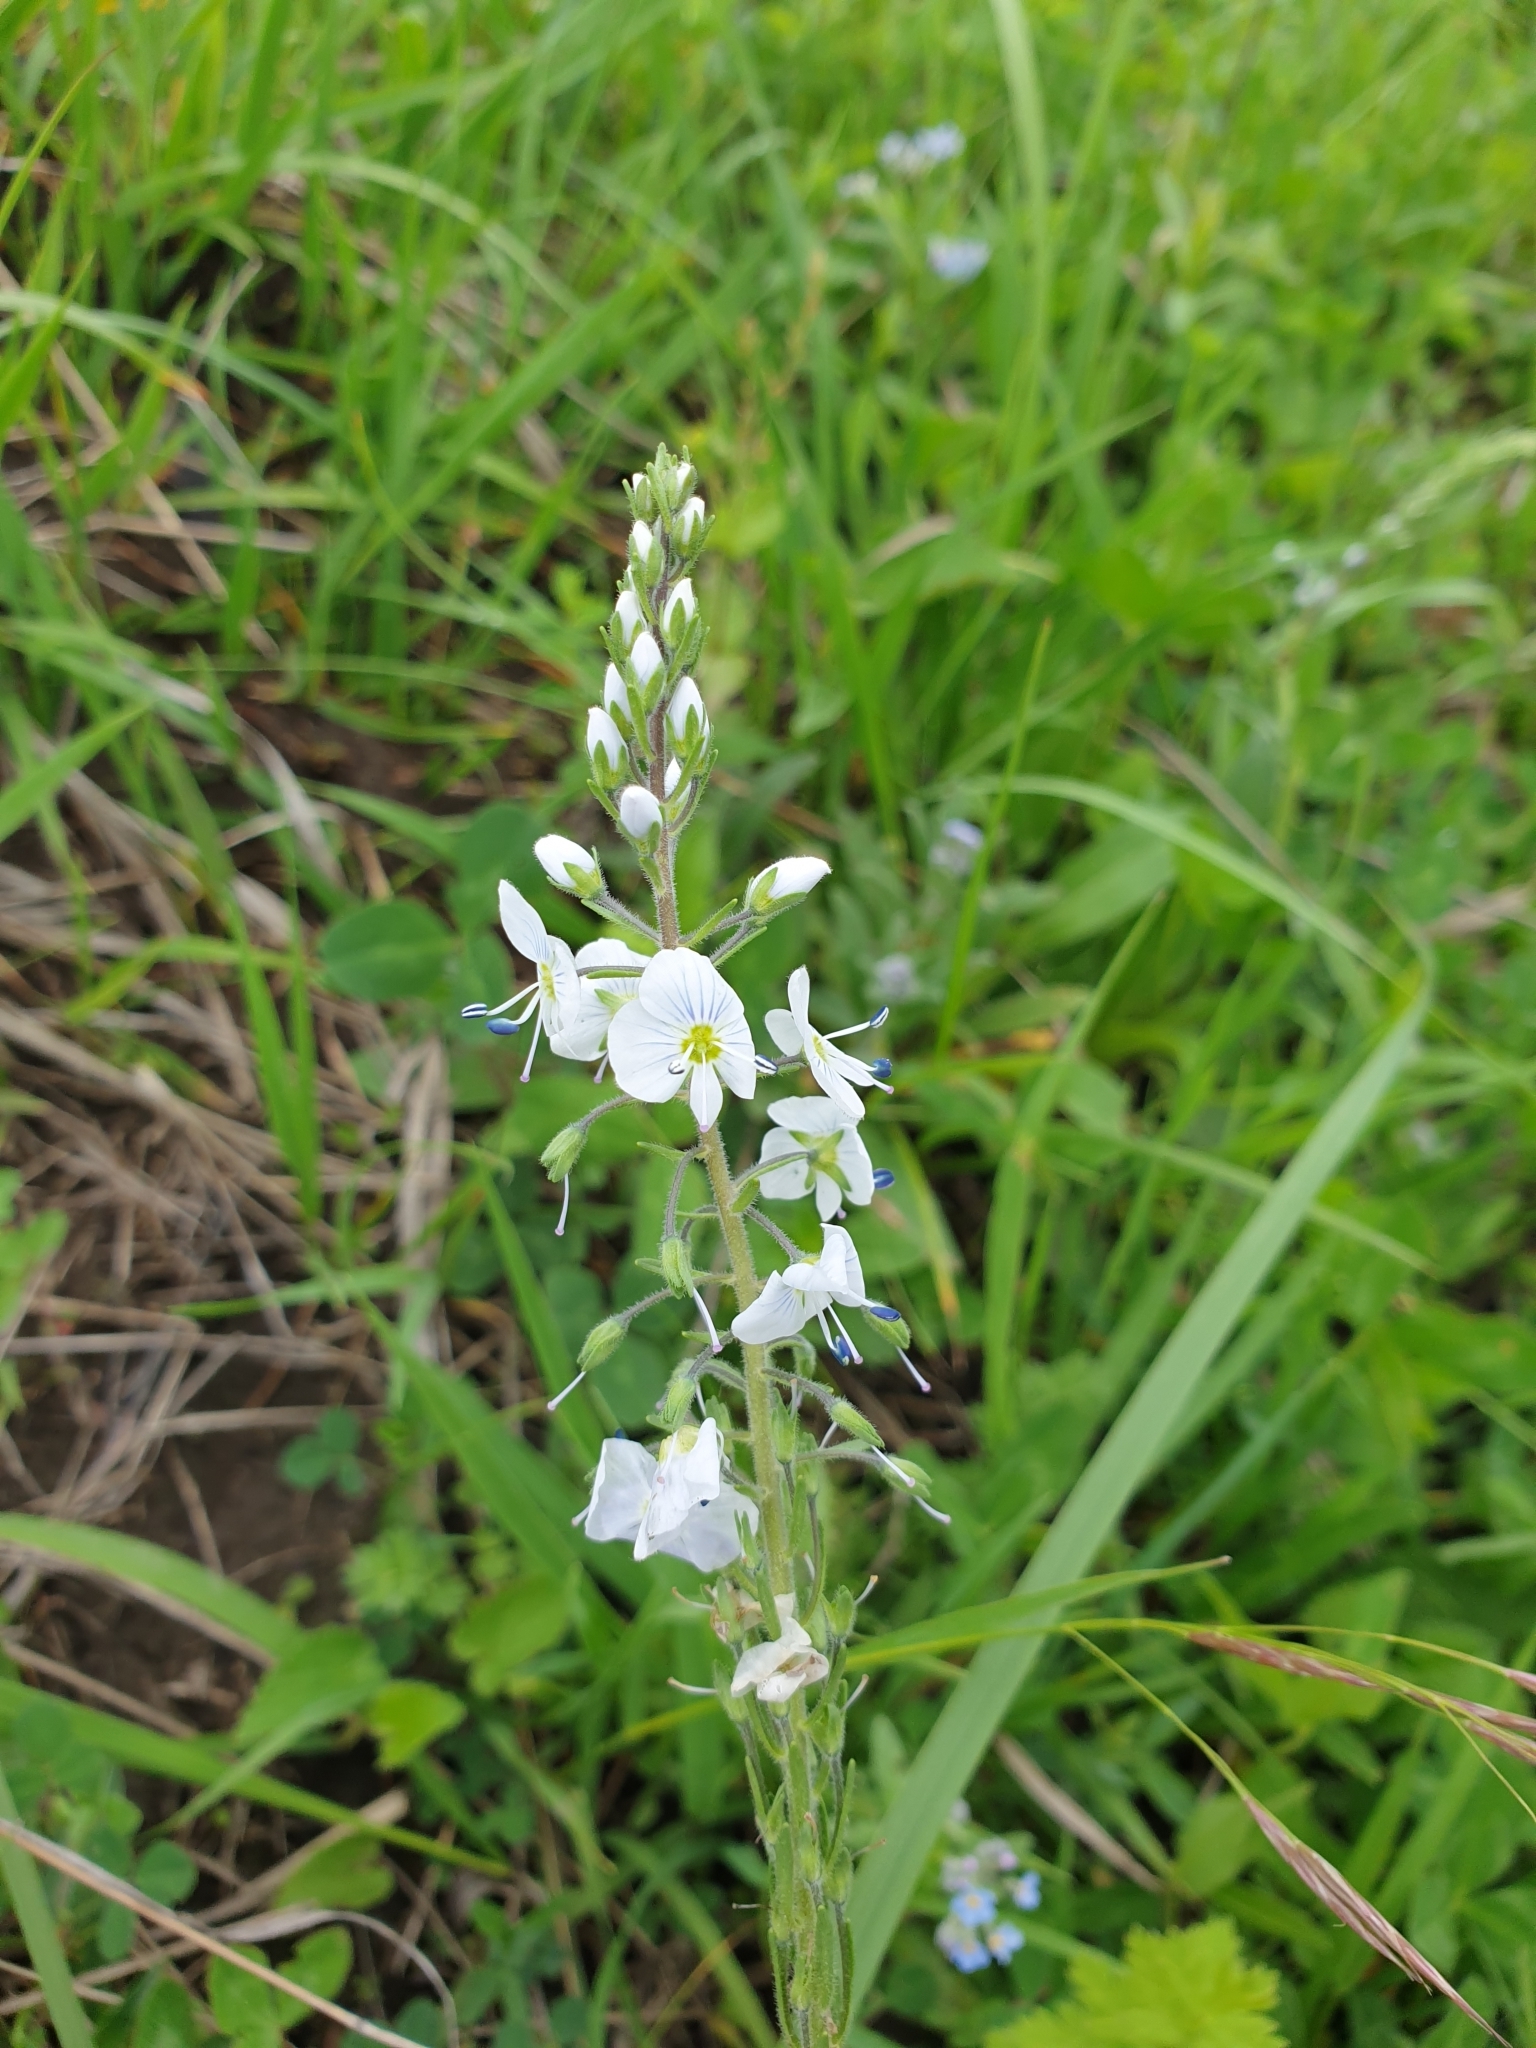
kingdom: Plantae
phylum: Tracheophyta
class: Magnoliopsida
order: Lamiales
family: Plantaginaceae
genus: Veronica
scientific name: Veronica gentianoides
